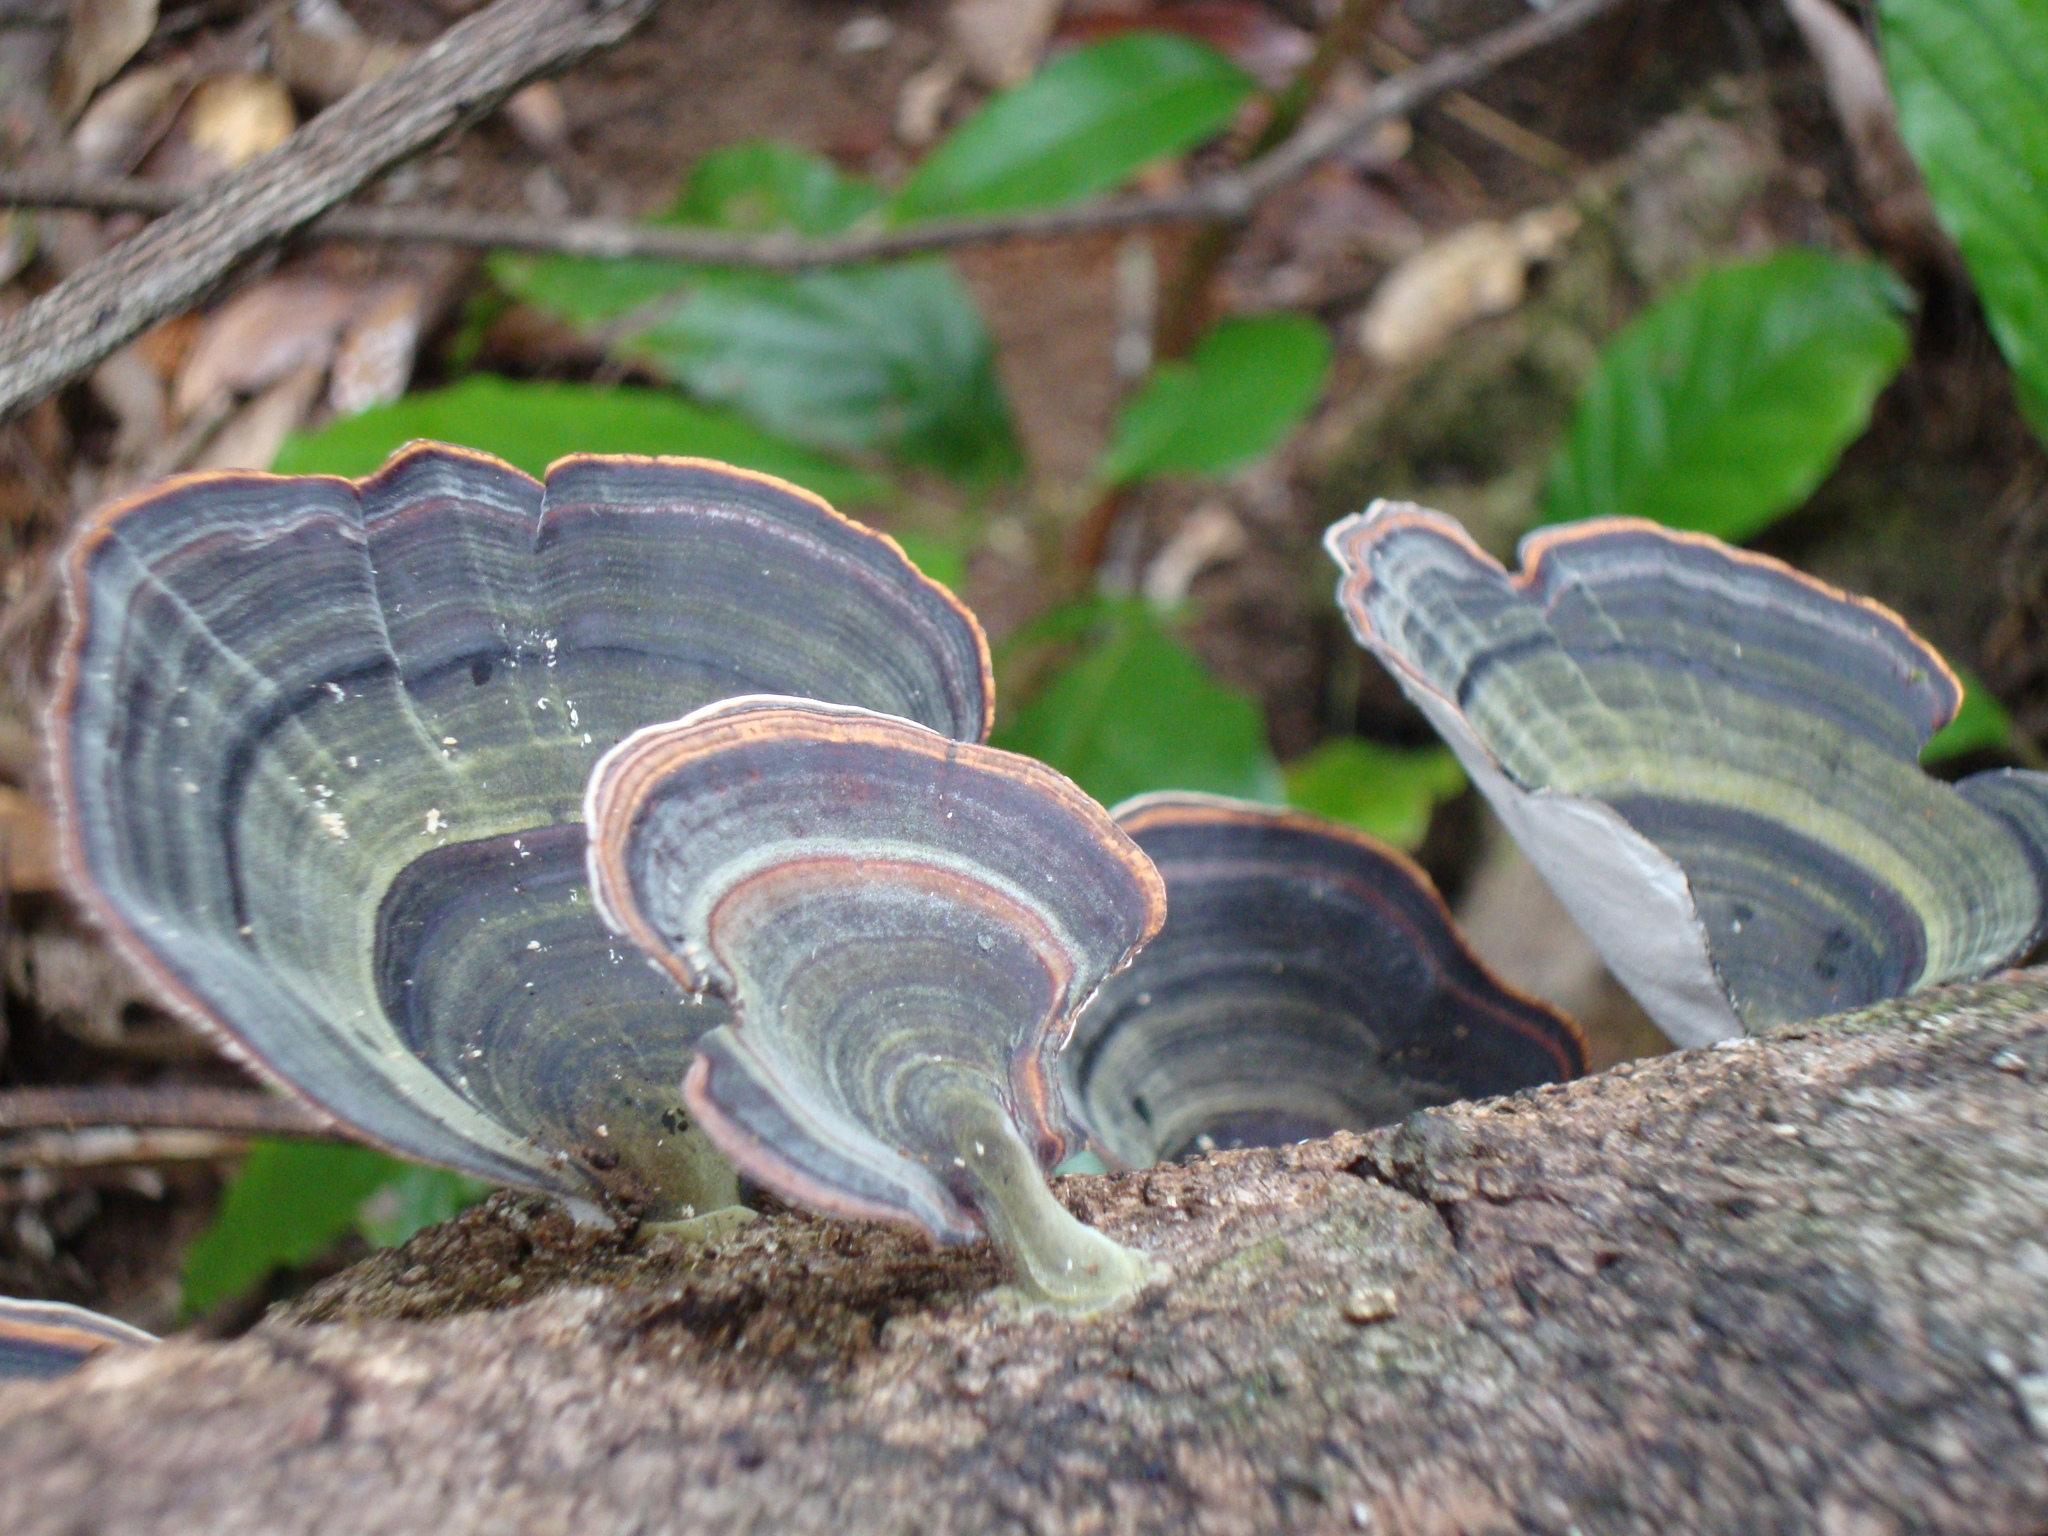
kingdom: Fungi
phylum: Basidiomycota
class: Agaricomycetes
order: Polyporales
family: Polyporaceae
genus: Microporus
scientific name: Microporus affinis
